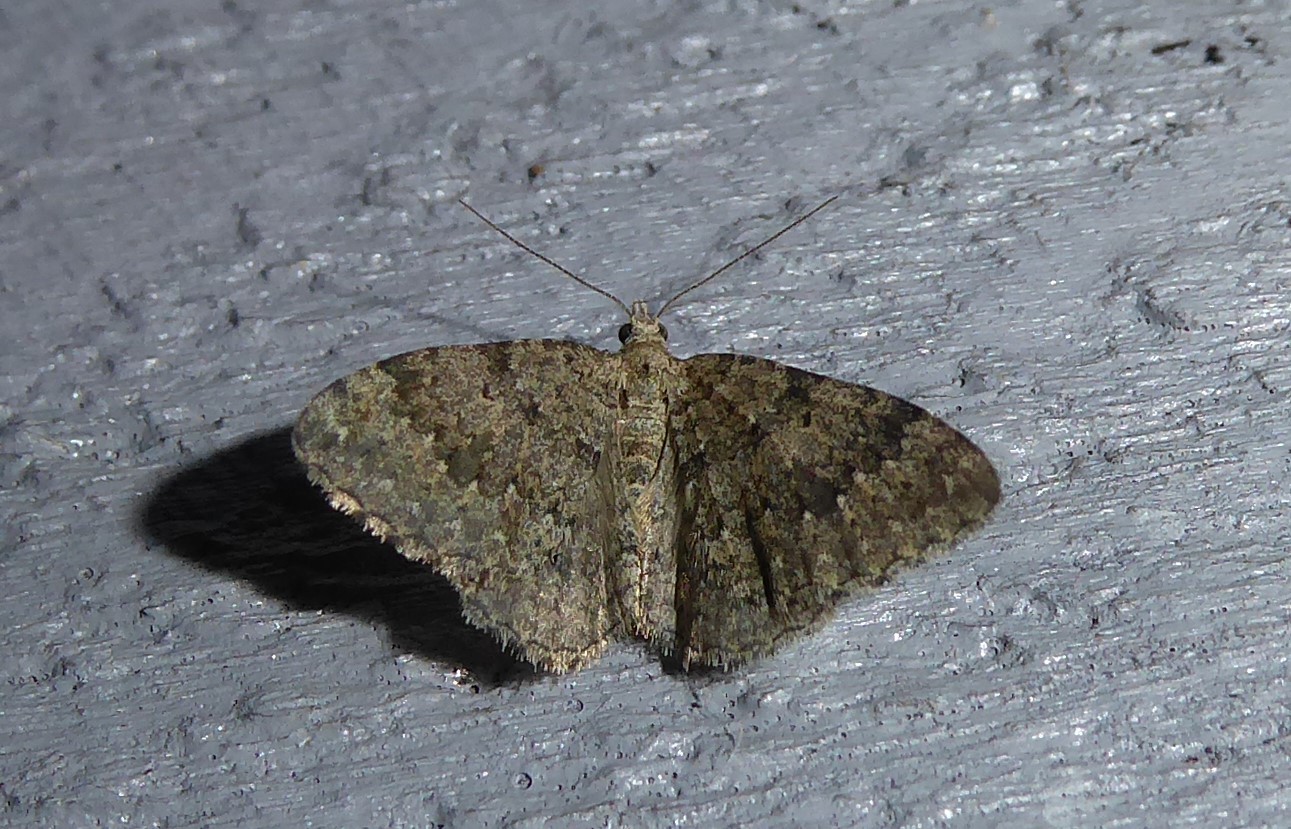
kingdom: Animalia
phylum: Arthropoda
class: Insecta
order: Lepidoptera
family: Geometridae
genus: Helastia
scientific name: Helastia corcularia
